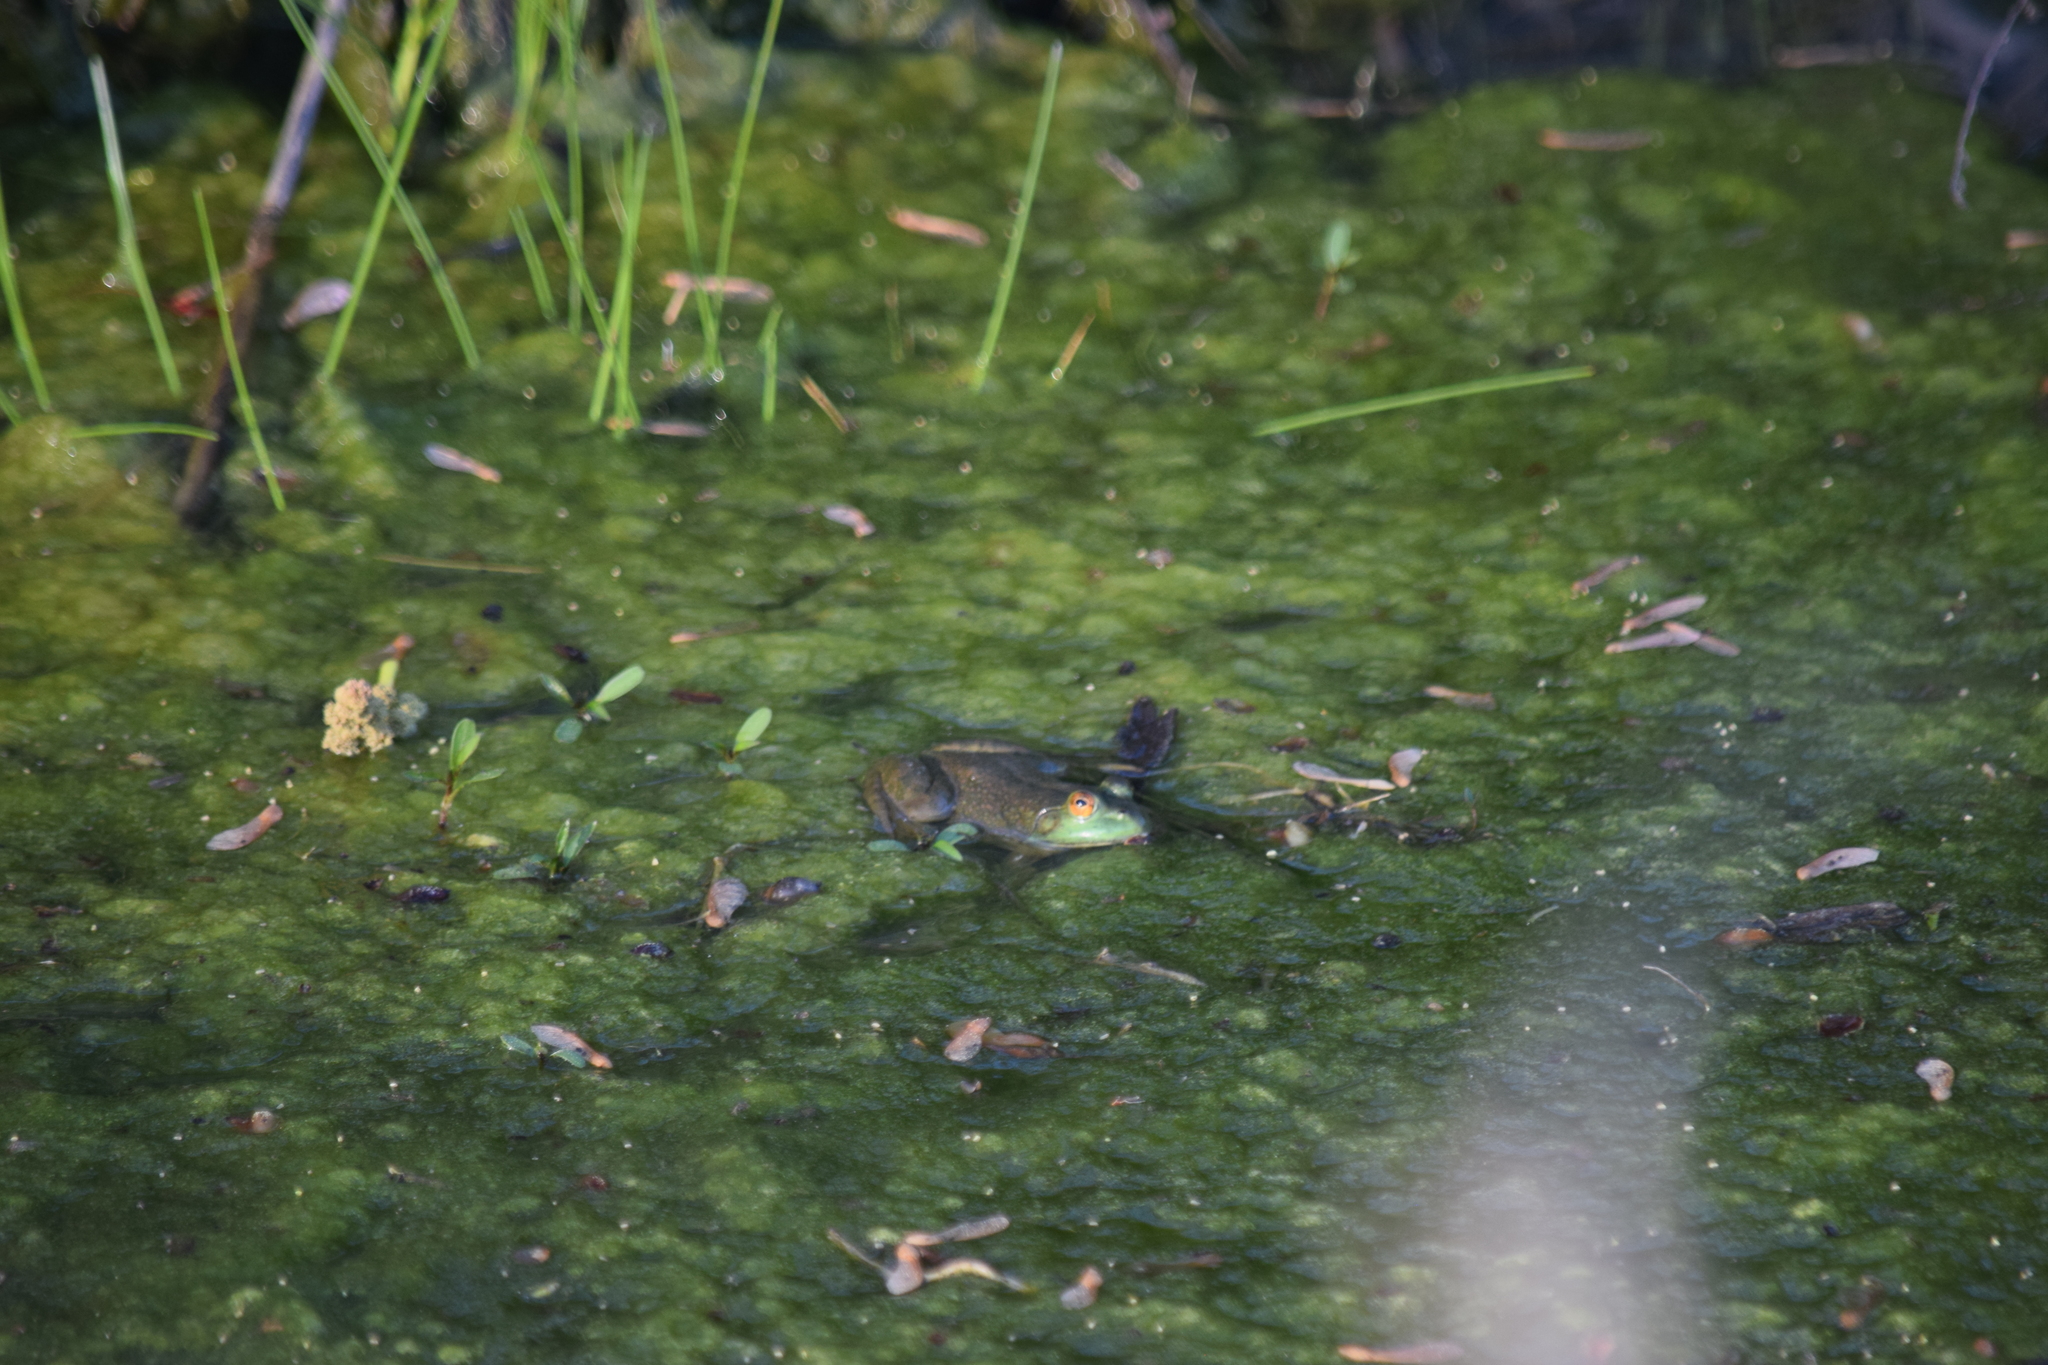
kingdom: Animalia
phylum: Chordata
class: Amphibia
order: Anura
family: Ranidae
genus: Lithobates
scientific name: Lithobates catesbeianus
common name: American bullfrog
